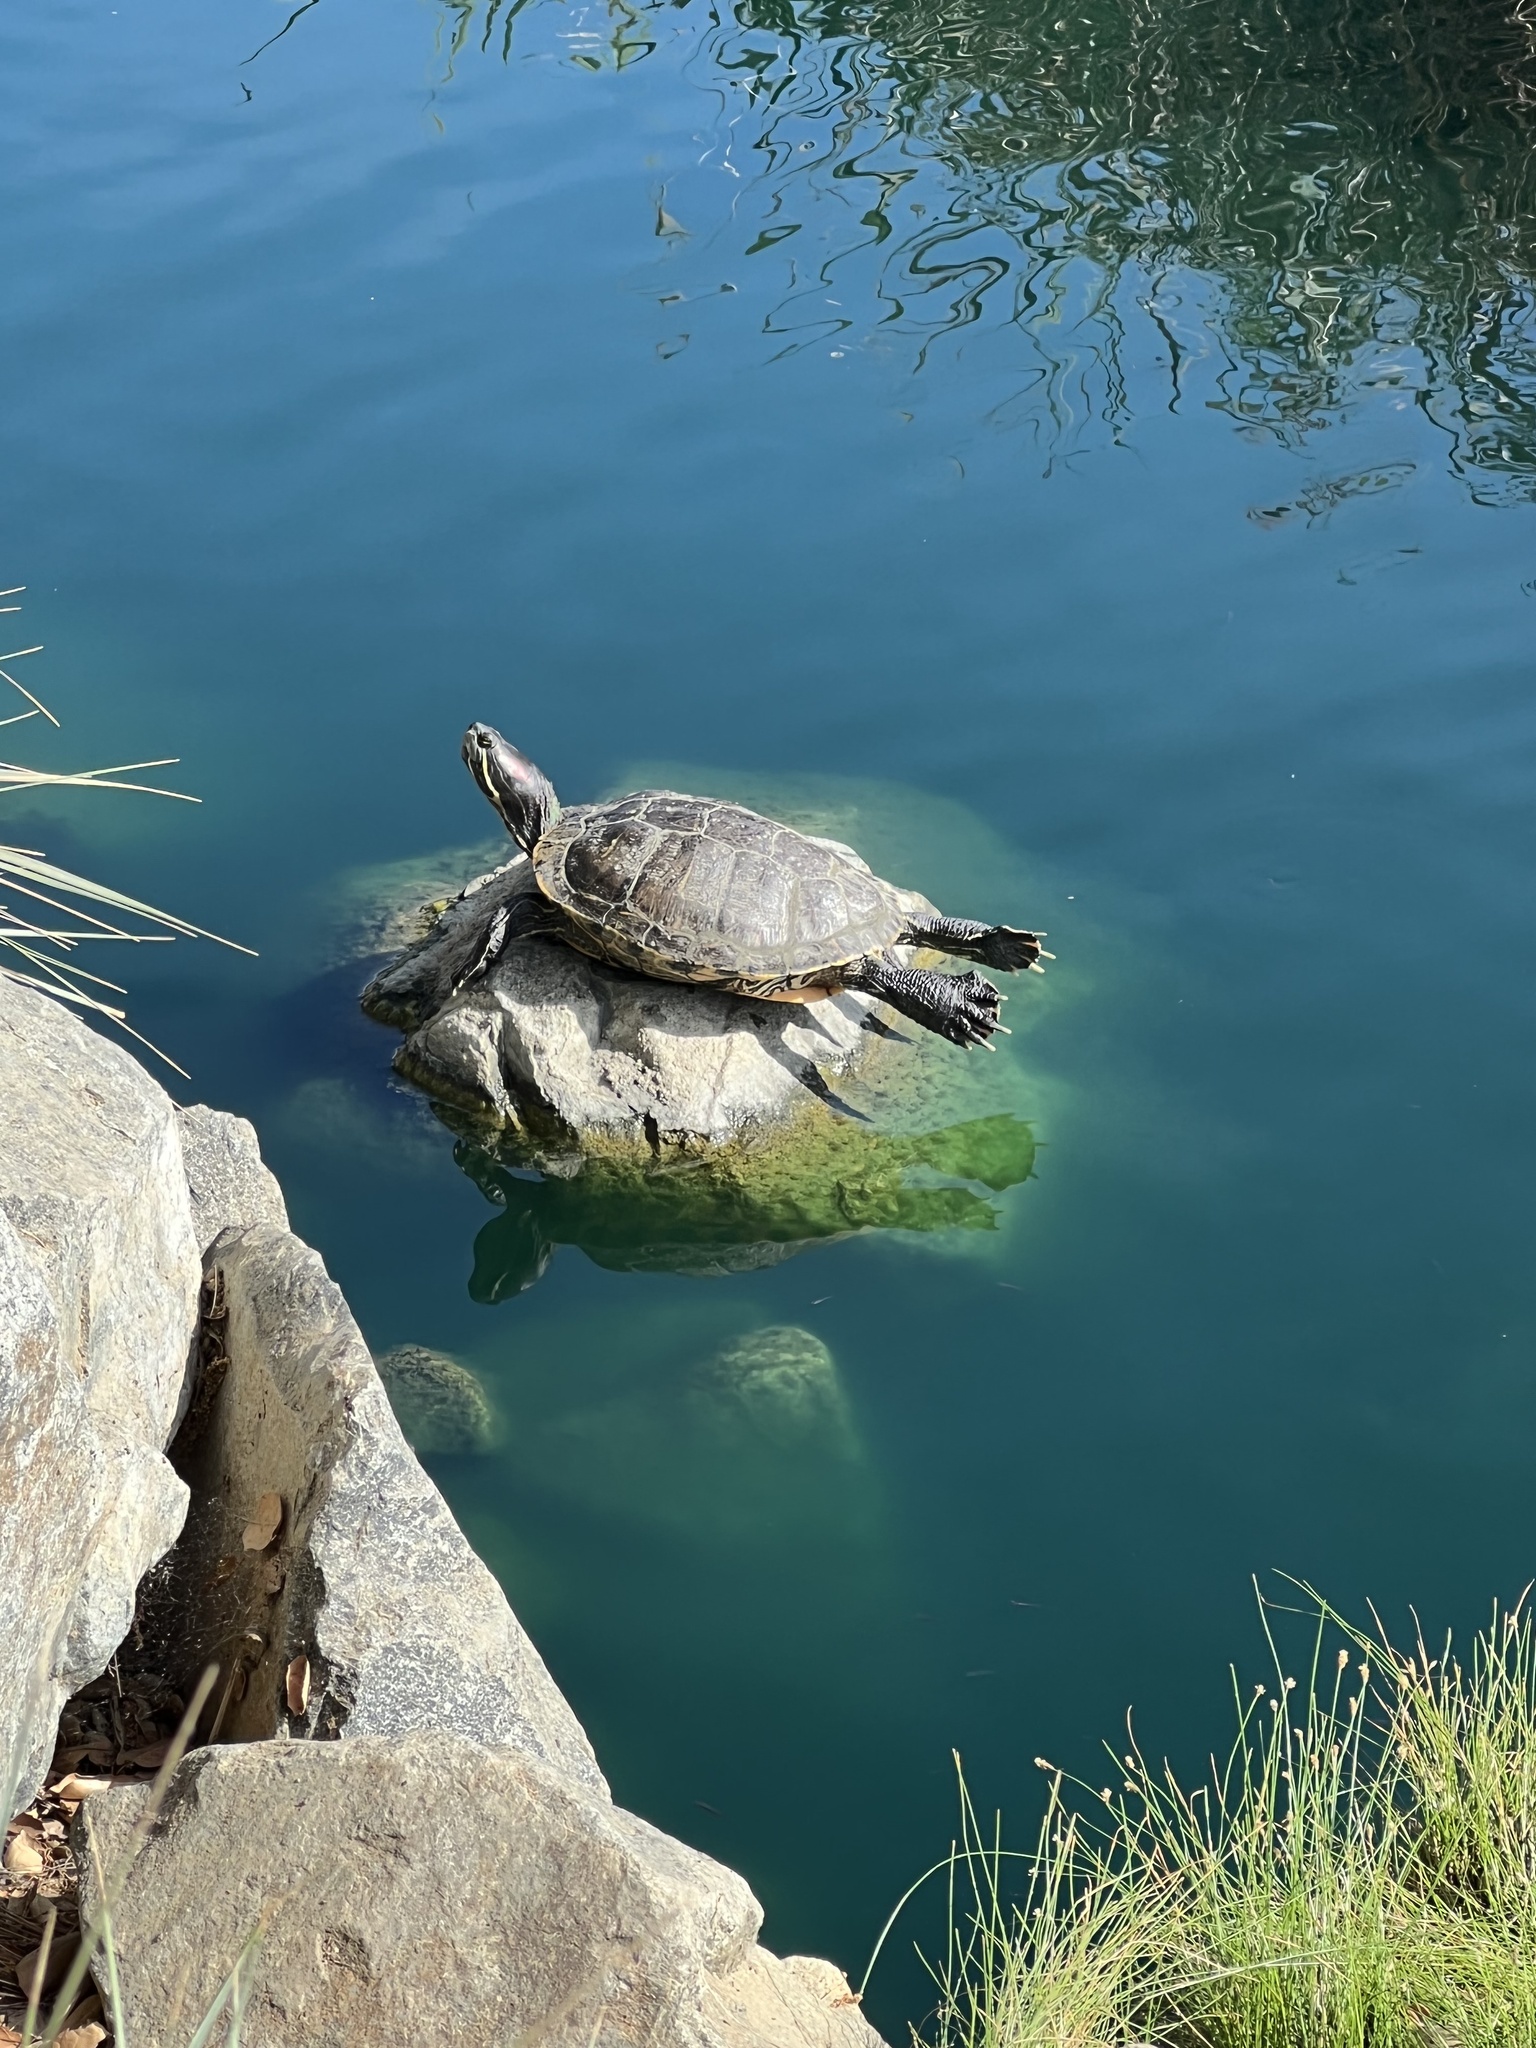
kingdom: Animalia
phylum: Chordata
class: Testudines
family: Emydidae
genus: Trachemys
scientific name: Trachemys scripta
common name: Slider
